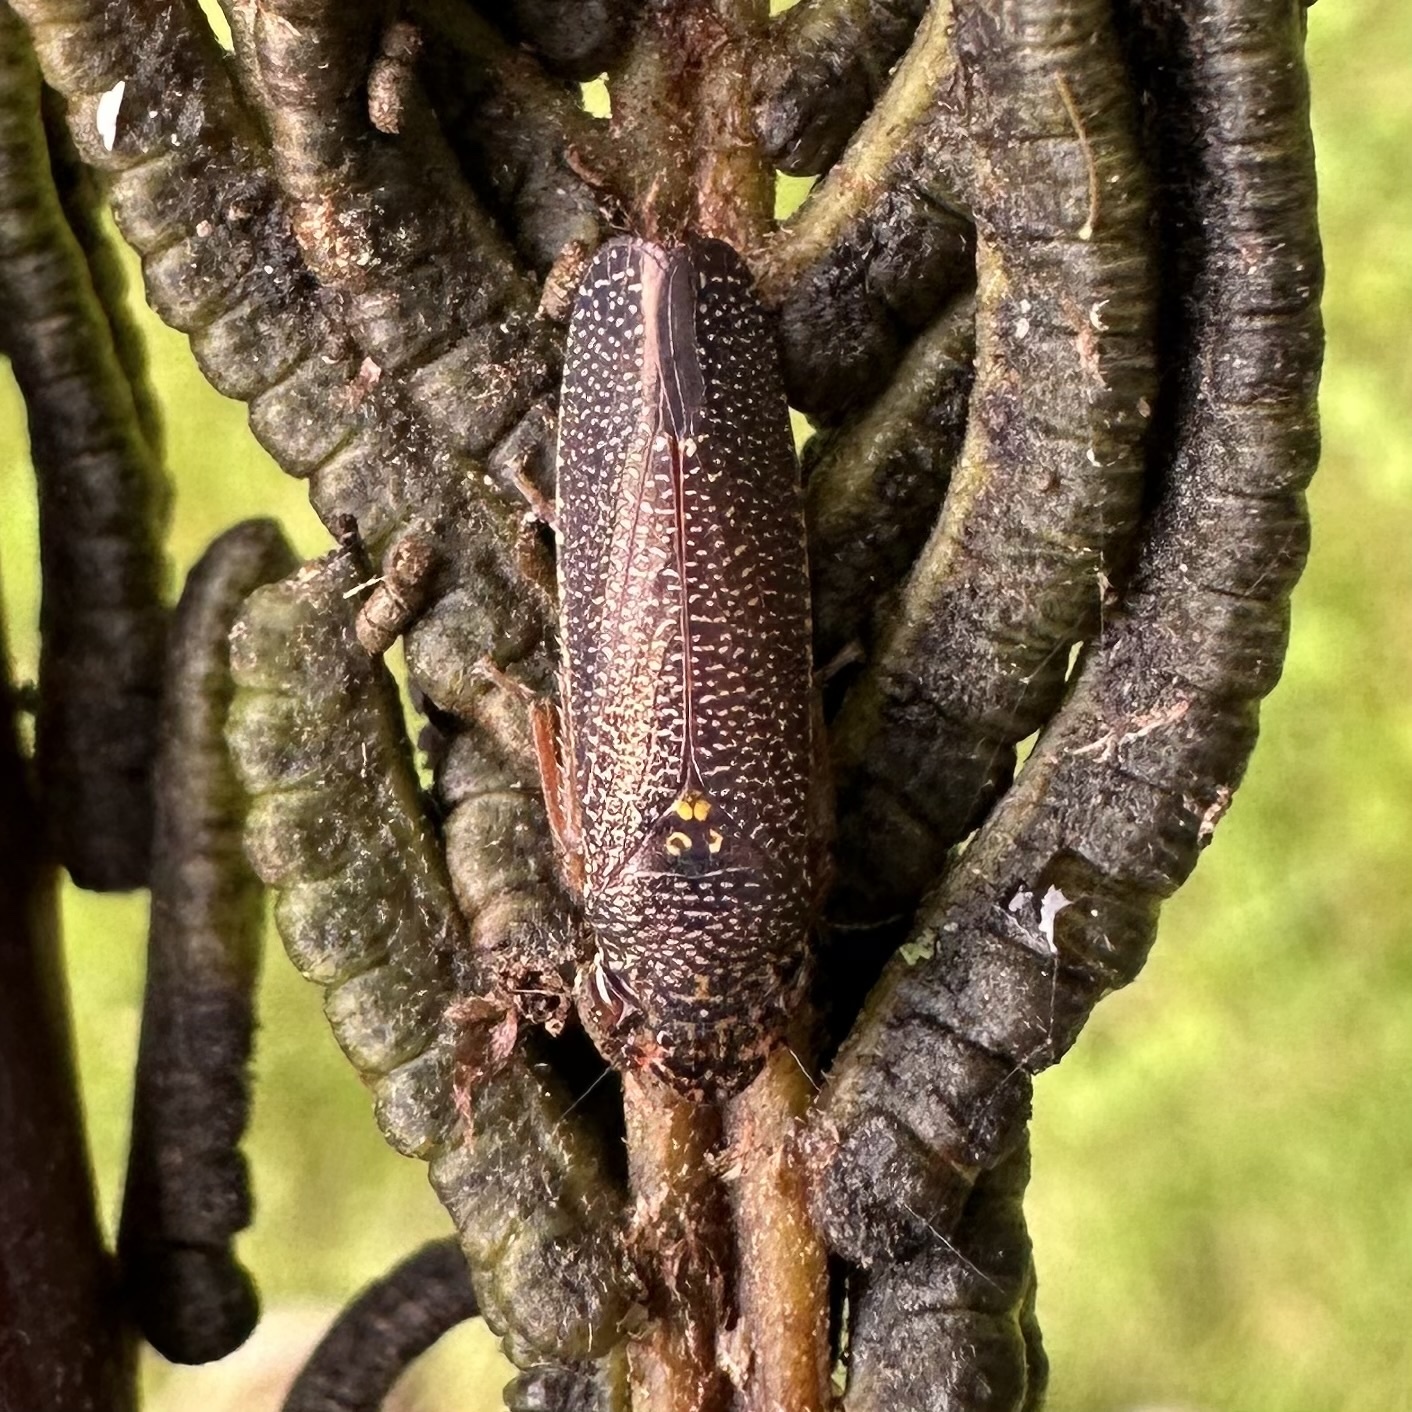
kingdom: Animalia
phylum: Arthropoda
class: Insecta
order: Hemiptera
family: Cicadellidae
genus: Paraulacizes
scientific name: Paraulacizes irrorata
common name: Speckled sharpshooter
